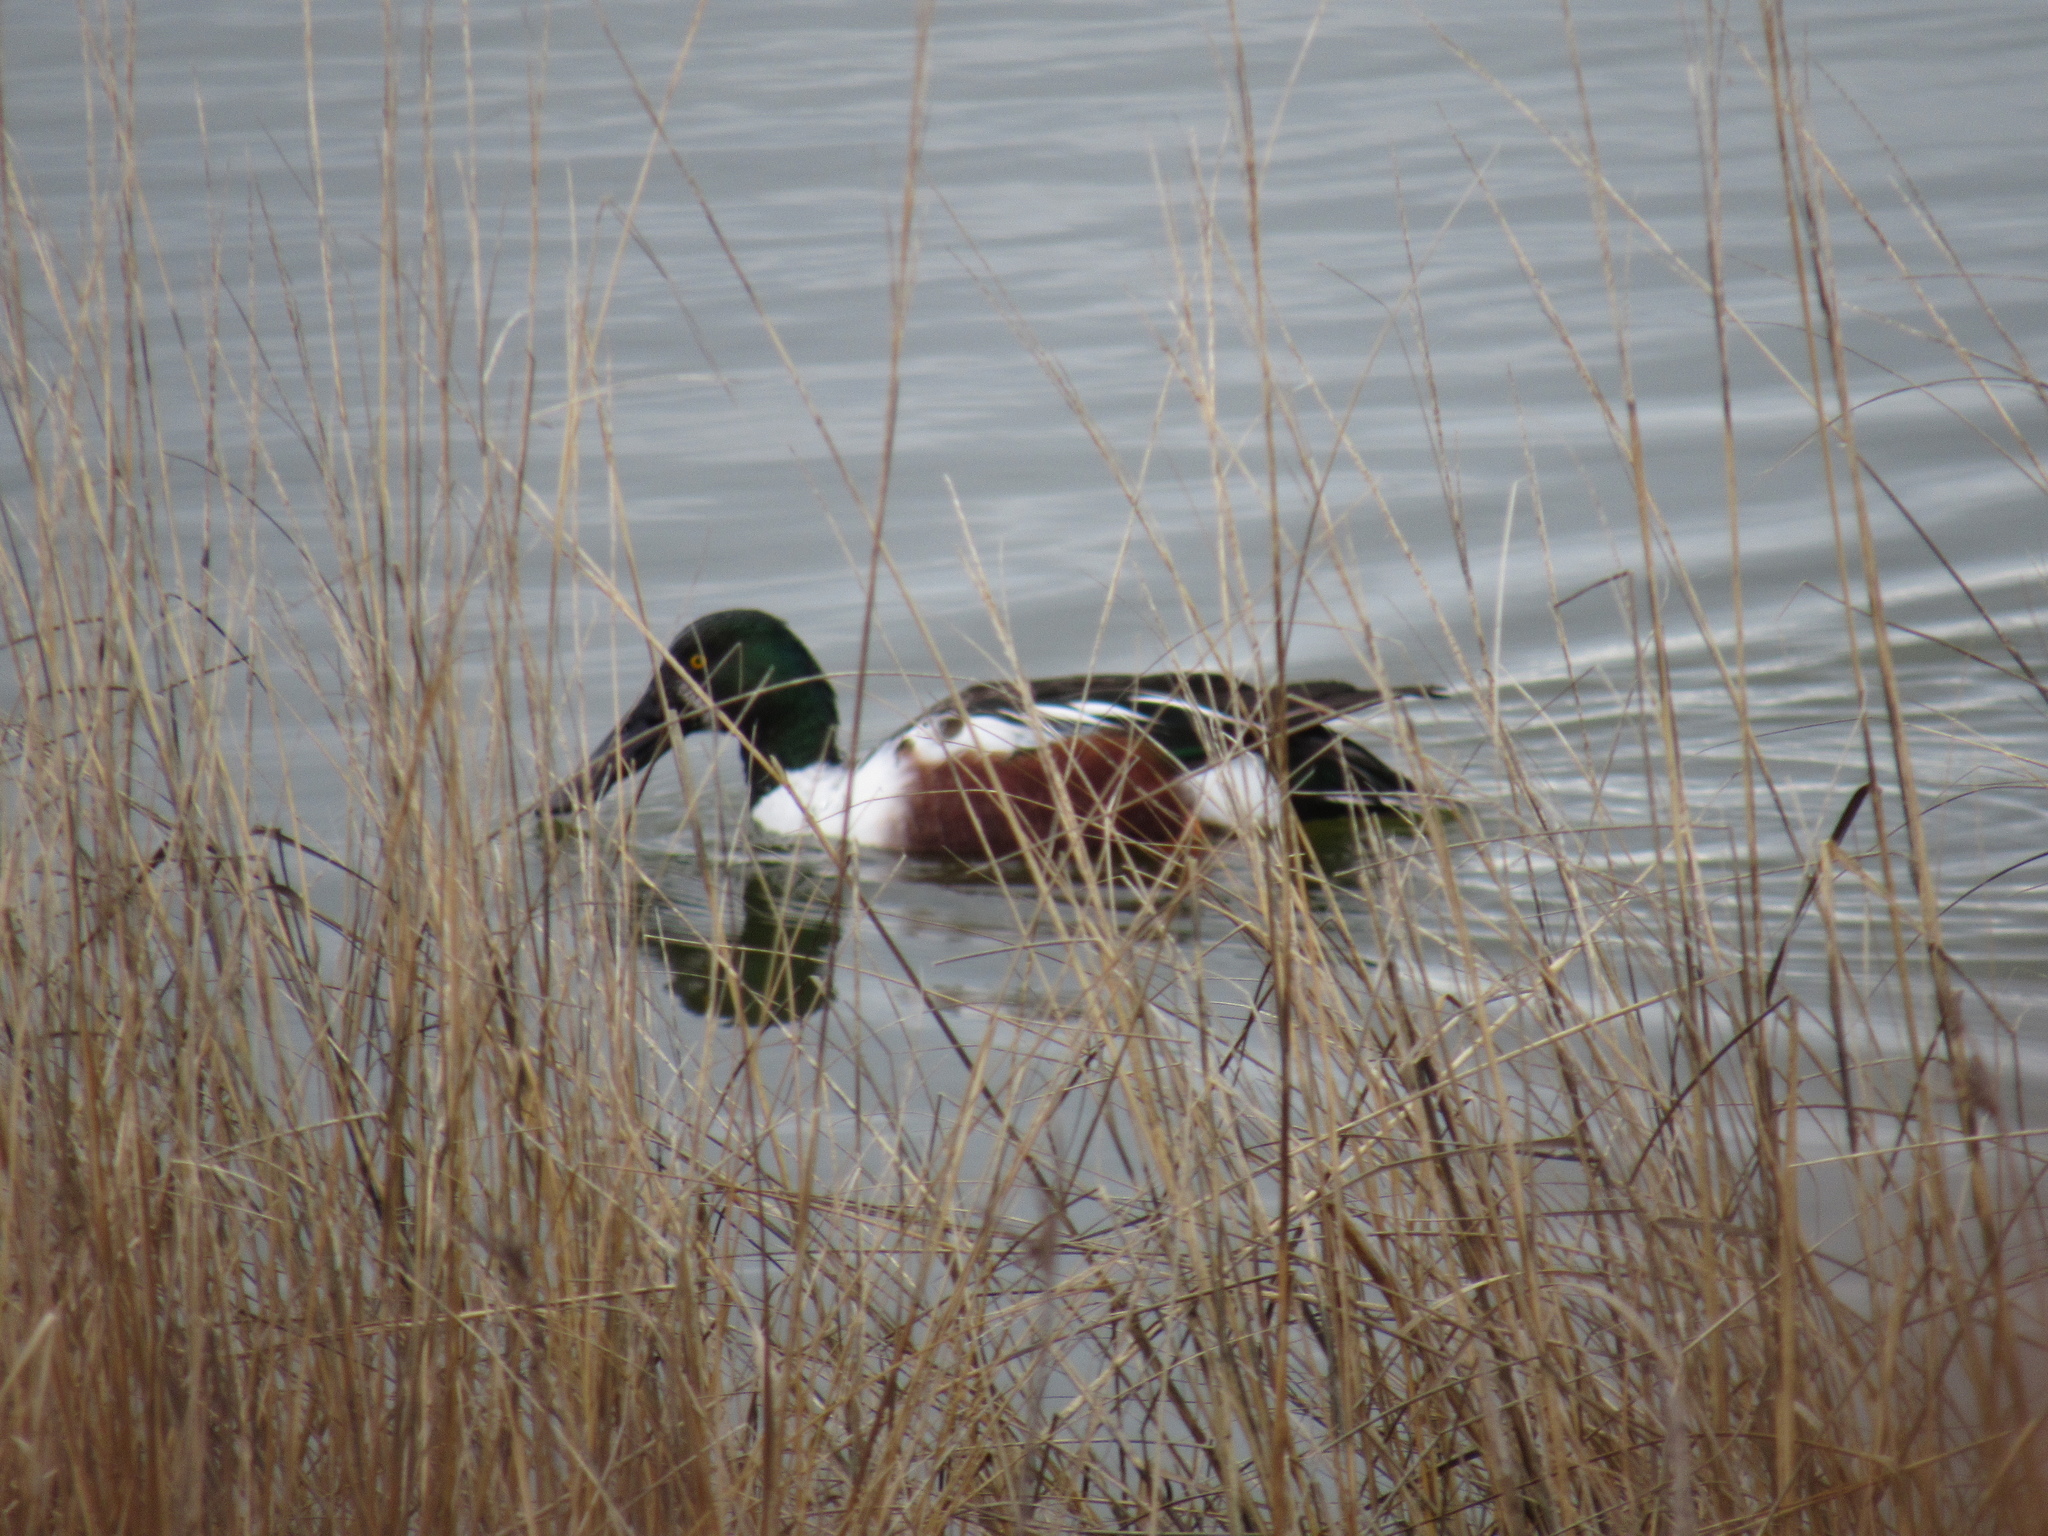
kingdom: Animalia
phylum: Chordata
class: Aves
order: Anseriformes
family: Anatidae
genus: Spatula
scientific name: Spatula clypeata
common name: Northern shoveler
